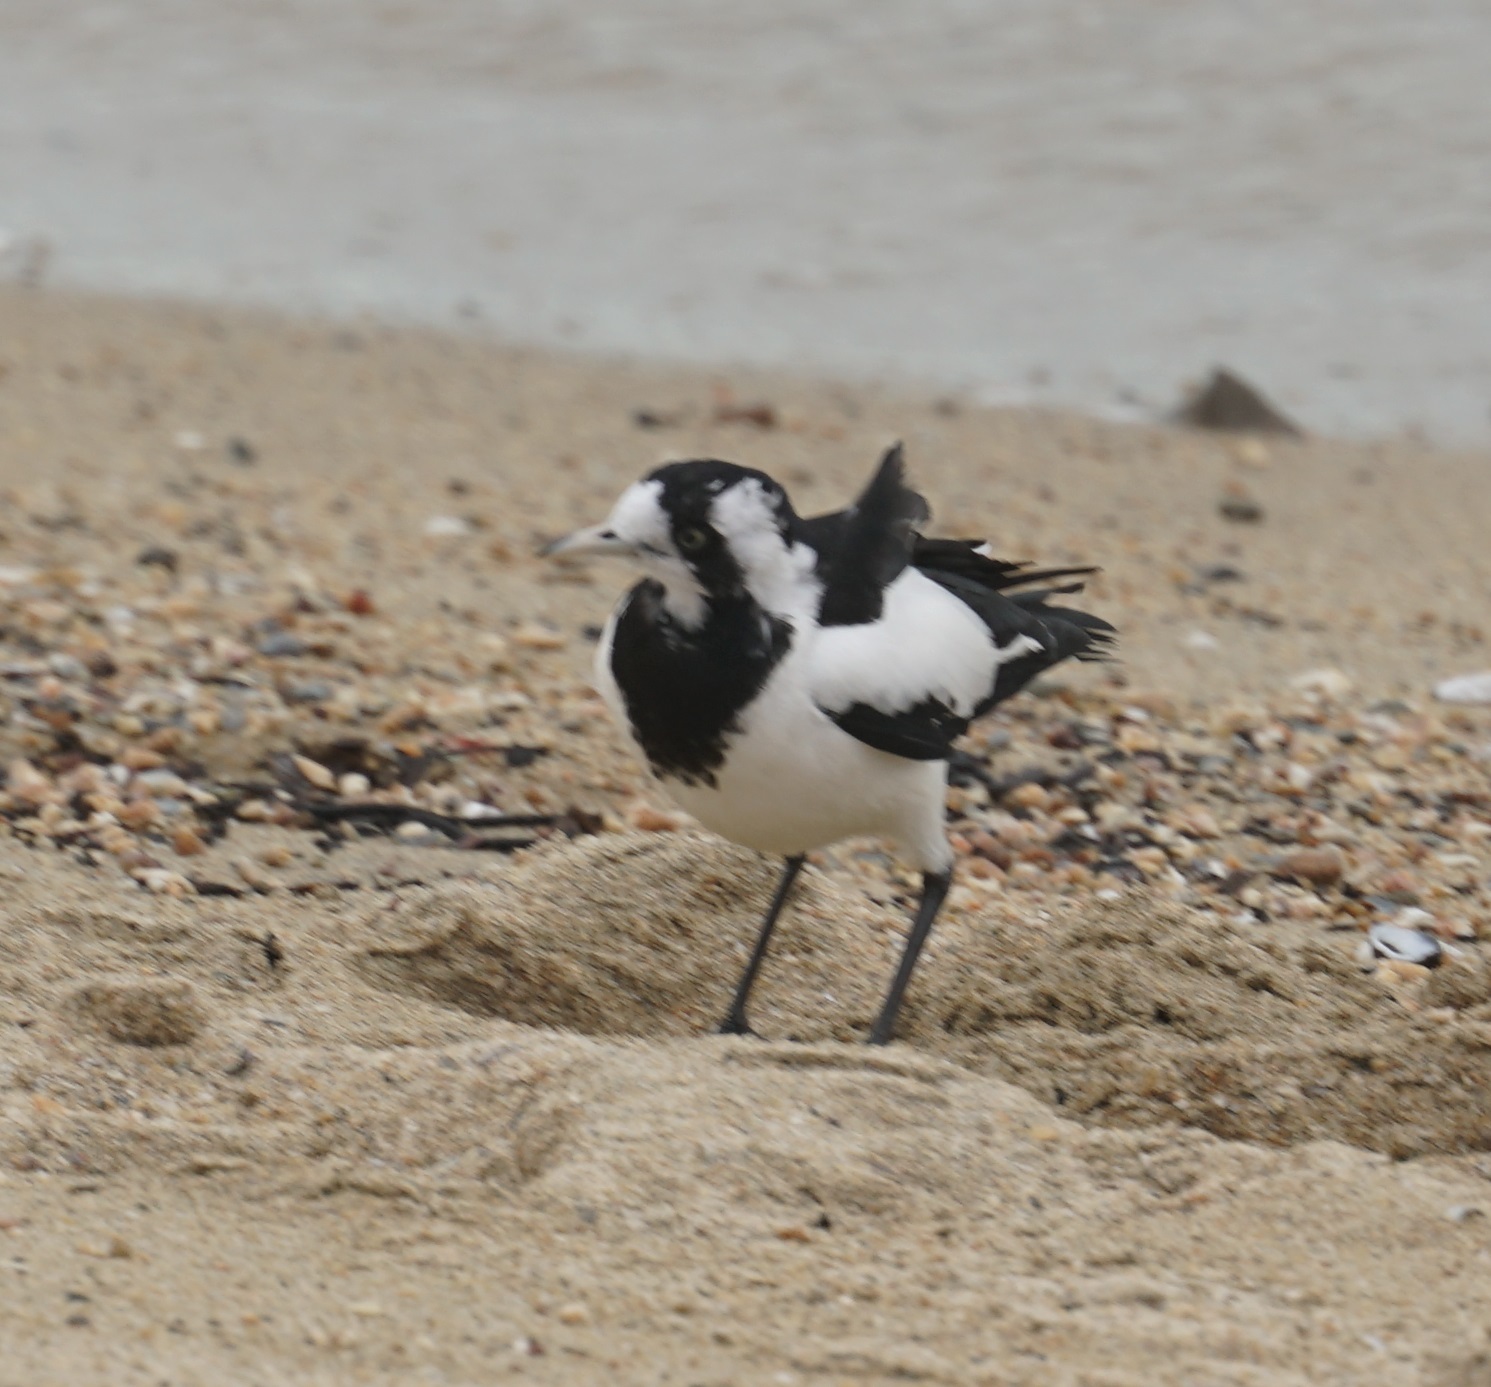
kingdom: Animalia
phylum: Chordata
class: Aves
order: Passeriformes
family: Monarchidae
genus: Grallina
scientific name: Grallina cyanoleuca
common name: Magpie-lark
